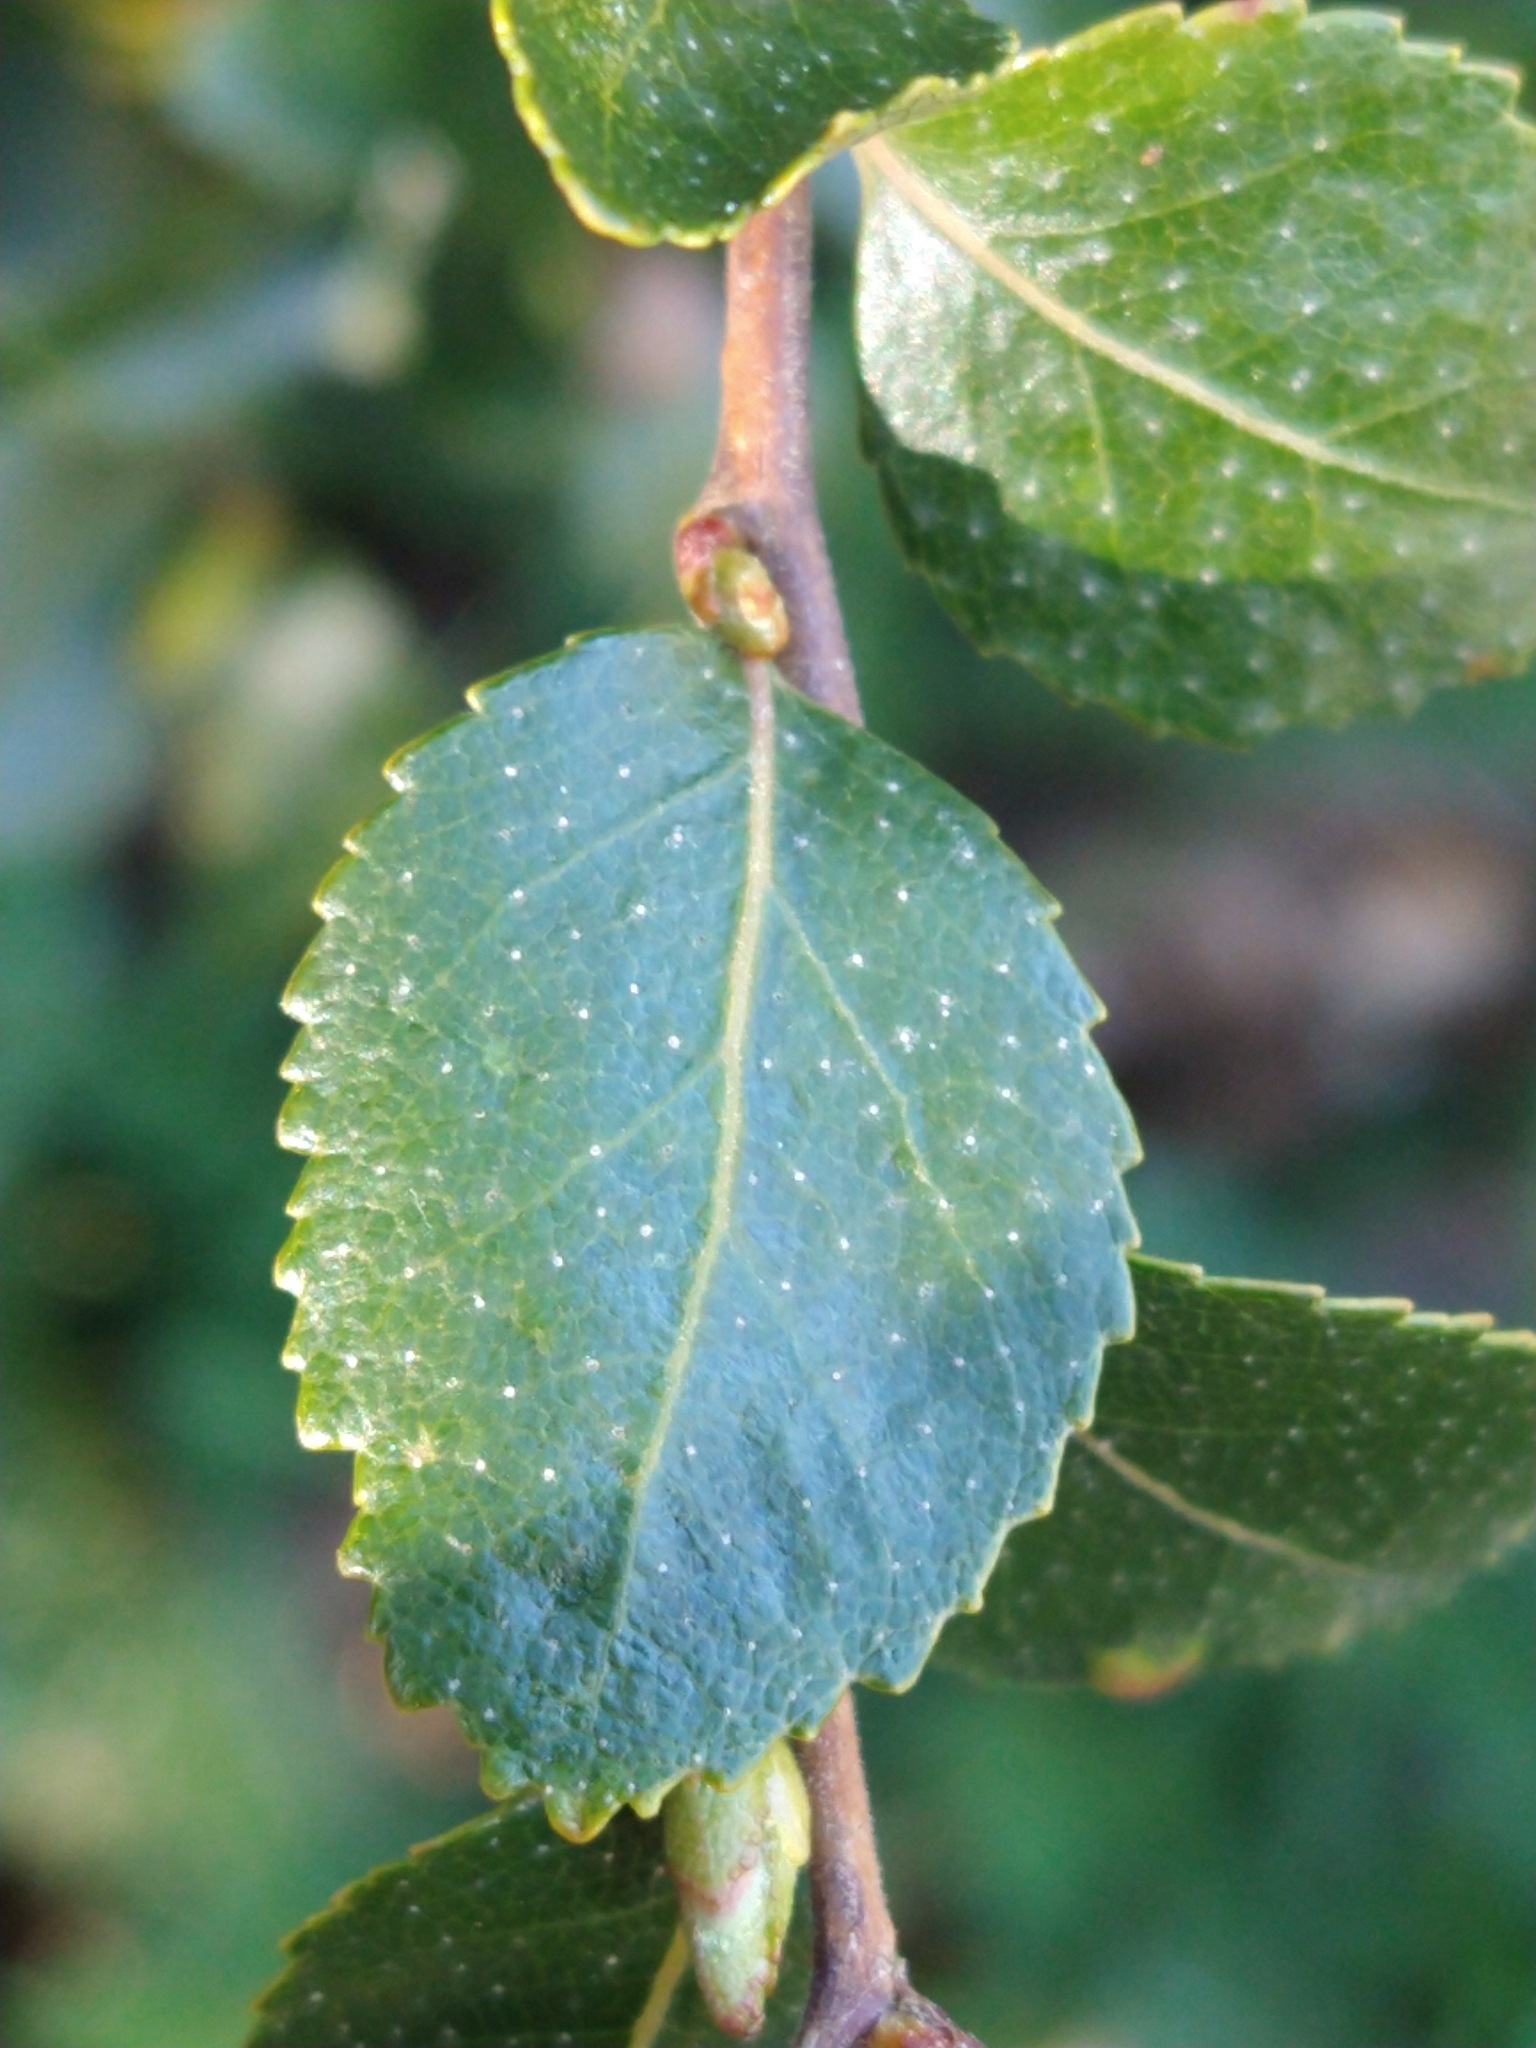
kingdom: Plantae
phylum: Tracheophyta
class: Magnoliopsida
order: Fagales
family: Nothofagaceae
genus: Nothofagus
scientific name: Nothofagus betuloides
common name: Magellan's beech
